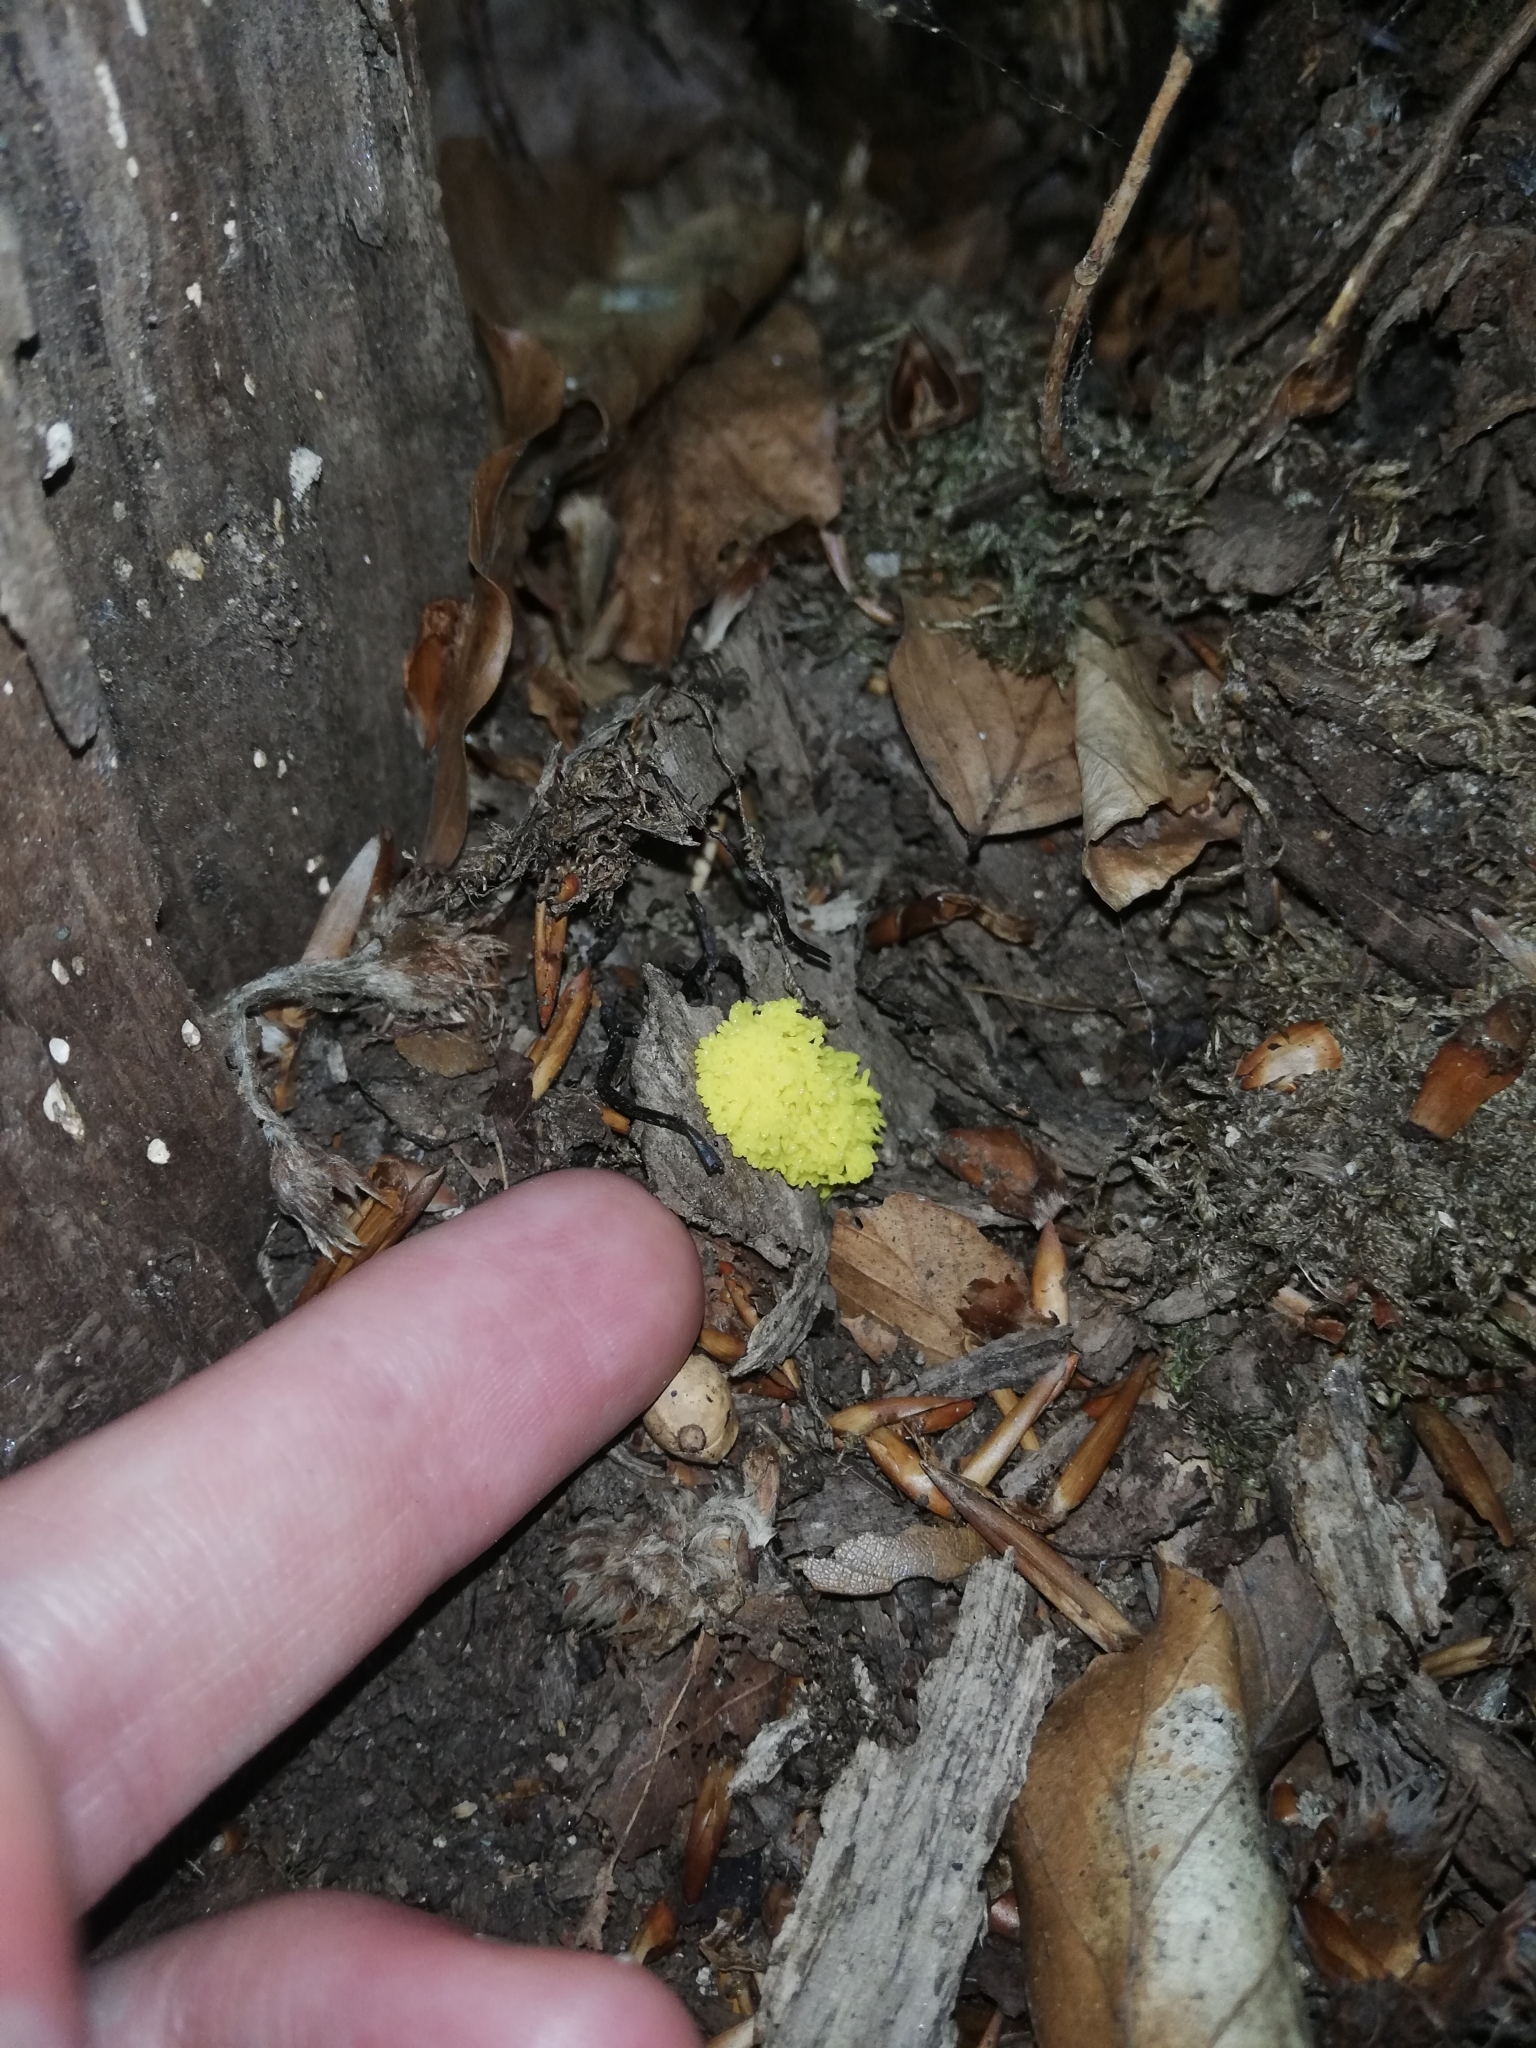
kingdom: Protozoa
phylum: Mycetozoa
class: Myxomycetes
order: Physarales
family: Physaraceae
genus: Fuligo
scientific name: Fuligo septica
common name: Dog vomit slime mold
